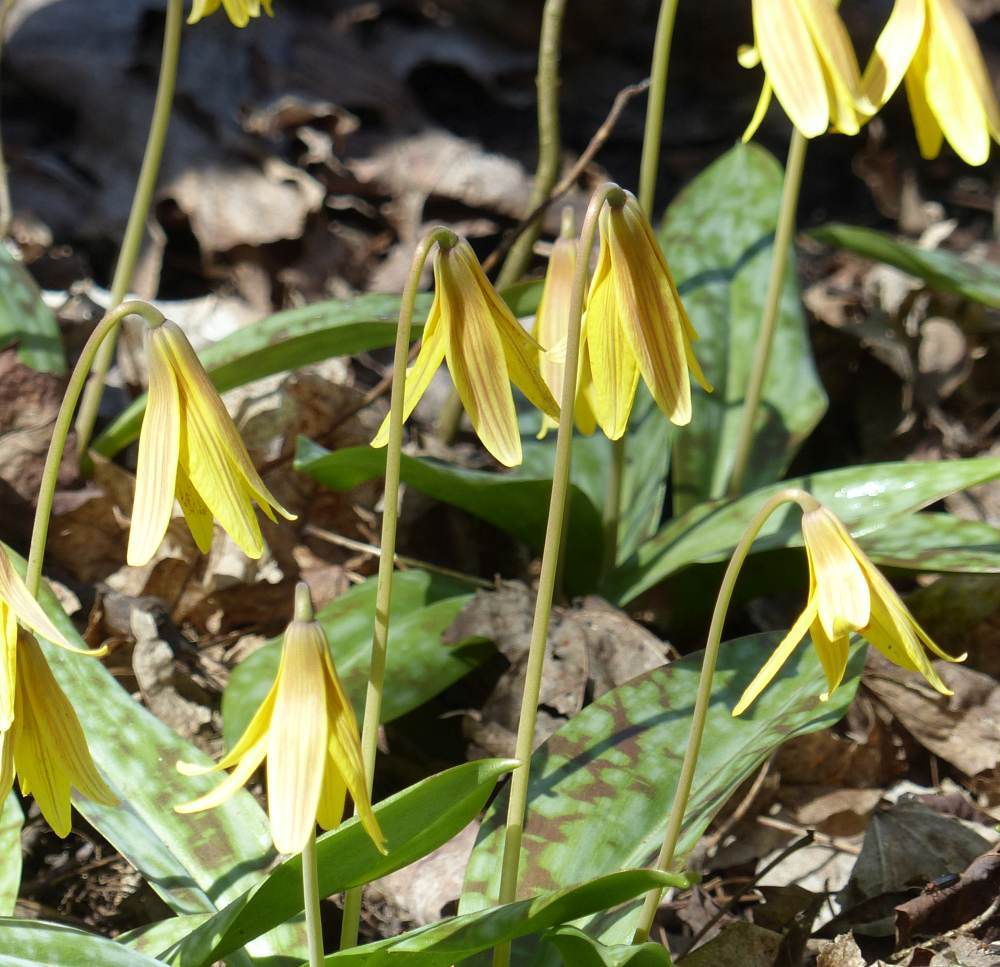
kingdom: Plantae
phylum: Tracheophyta
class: Liliopsida
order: Liliales
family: Liliaceae
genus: Erythronium
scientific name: Erythronium americanum
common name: Yellow adder's-tongue
